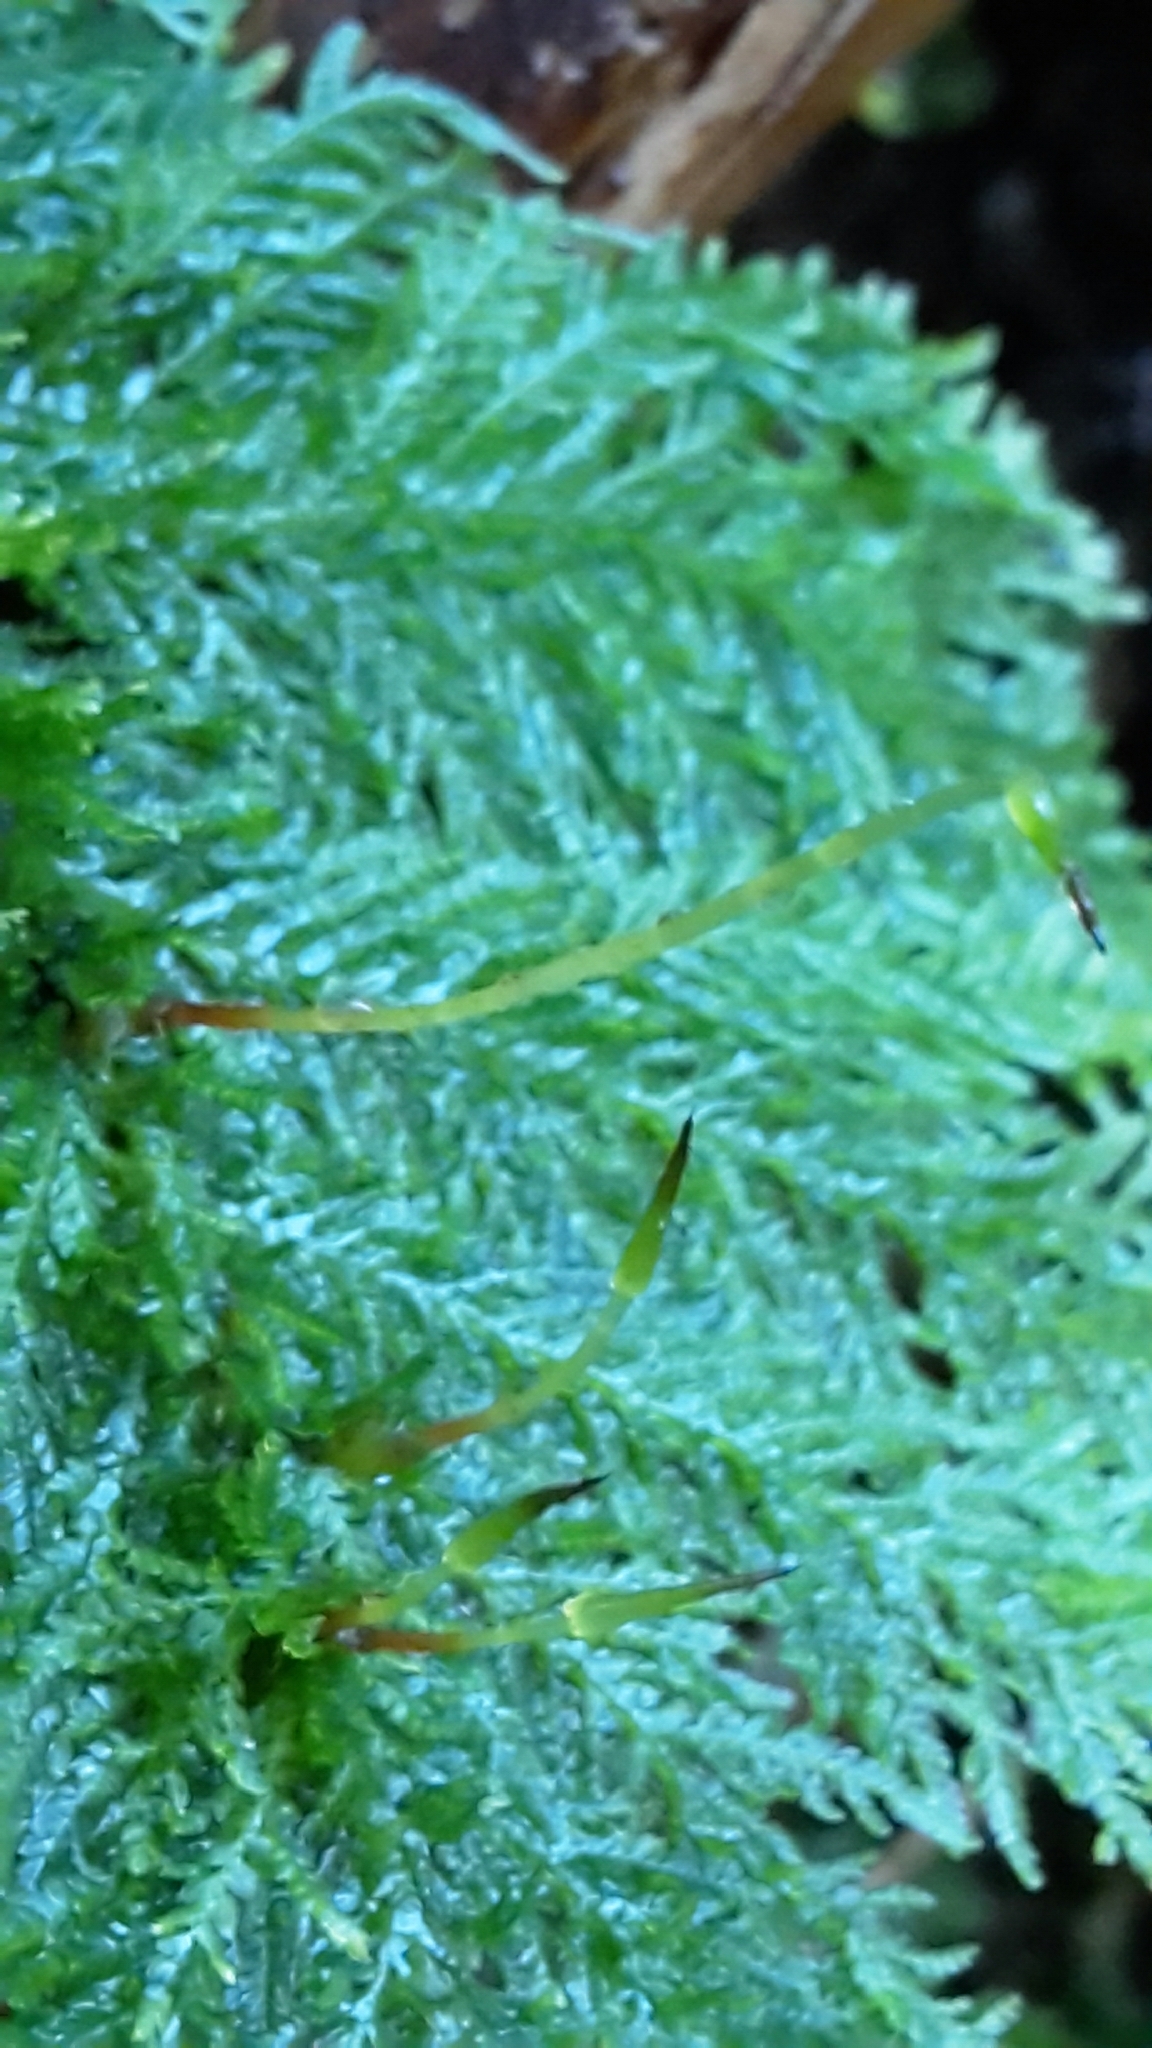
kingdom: Plantae
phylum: Bryophyta
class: Bryopsida
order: Hypopterygiales
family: Hypopterygiaceae
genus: Dendrohypopterygium
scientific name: Dendrohypopterygium filiculiforme
